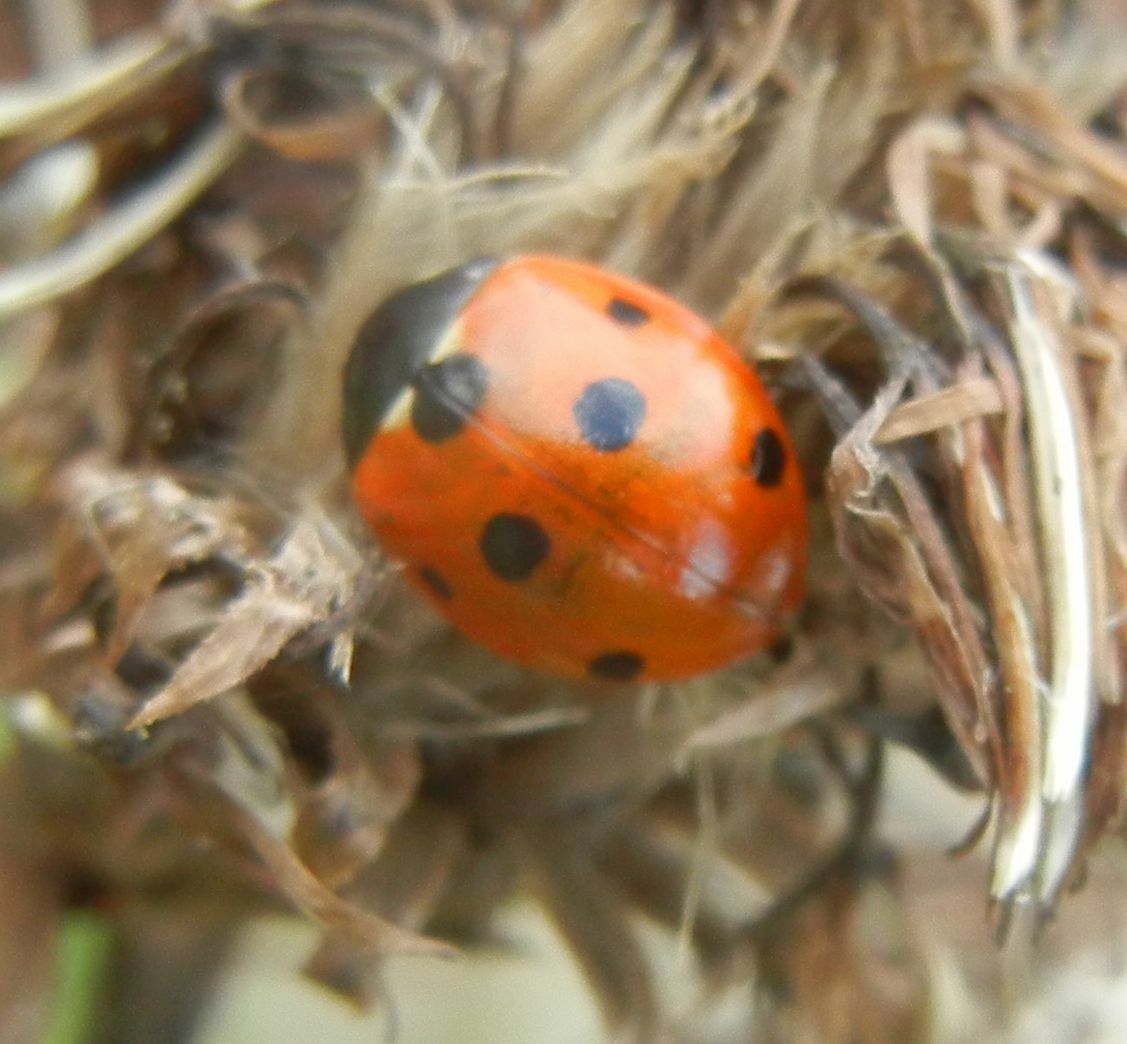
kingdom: Animalia
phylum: Arthropoda
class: Insecta
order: Coleoptera
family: Coccinellidae
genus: Coccinella
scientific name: Coccinella septempunctata
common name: Sevenspotted lady beetle
